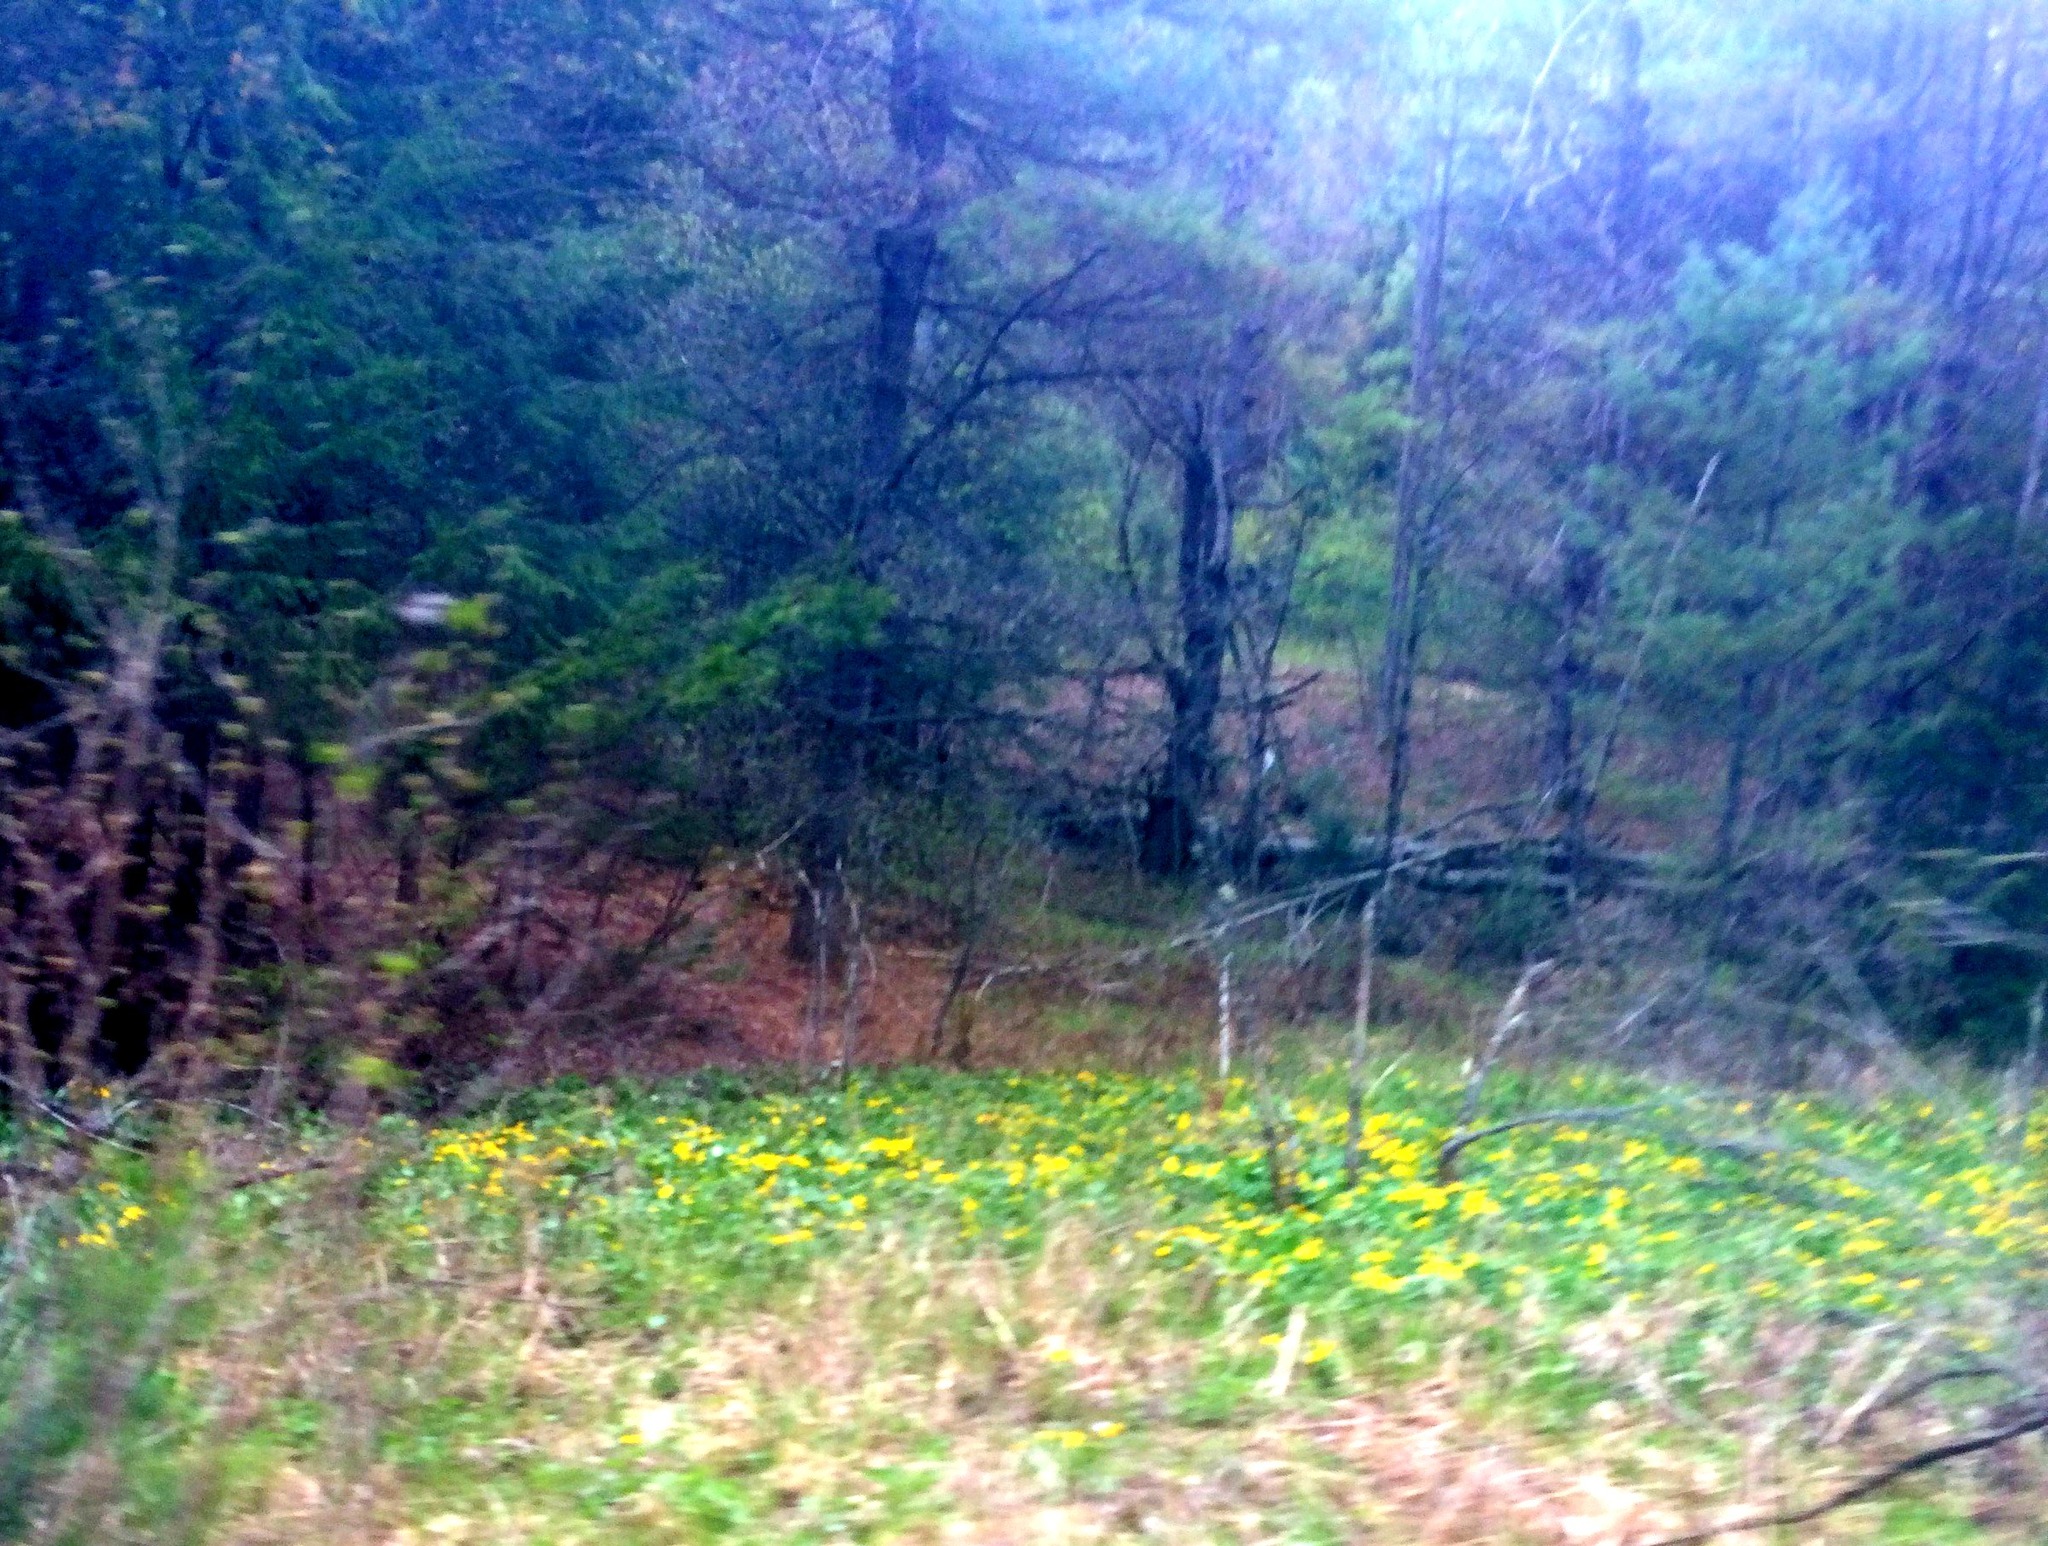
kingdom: Plantae
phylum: Tracheophyta
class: Pinopsida
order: Pinales
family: Pinaceae
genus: Pinus
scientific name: Pinus strobus
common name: Weymouth pine
